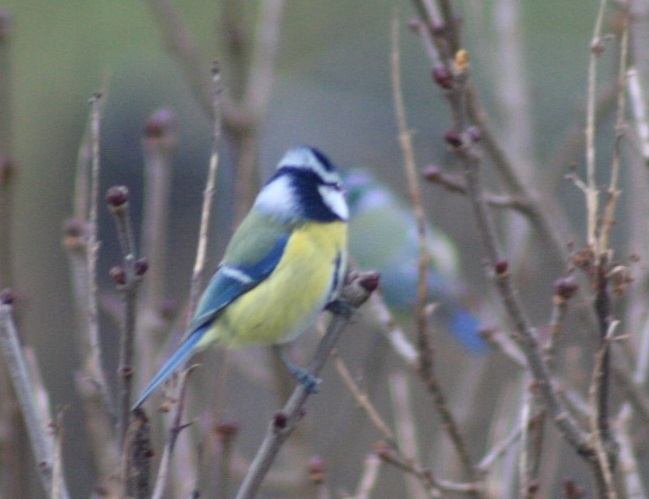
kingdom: Animalia
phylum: Chordata
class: Aves
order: Passeriformes
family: Paridae
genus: Cyanistes
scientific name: Cyanistes caeruleus
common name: Eurasian blue tit
